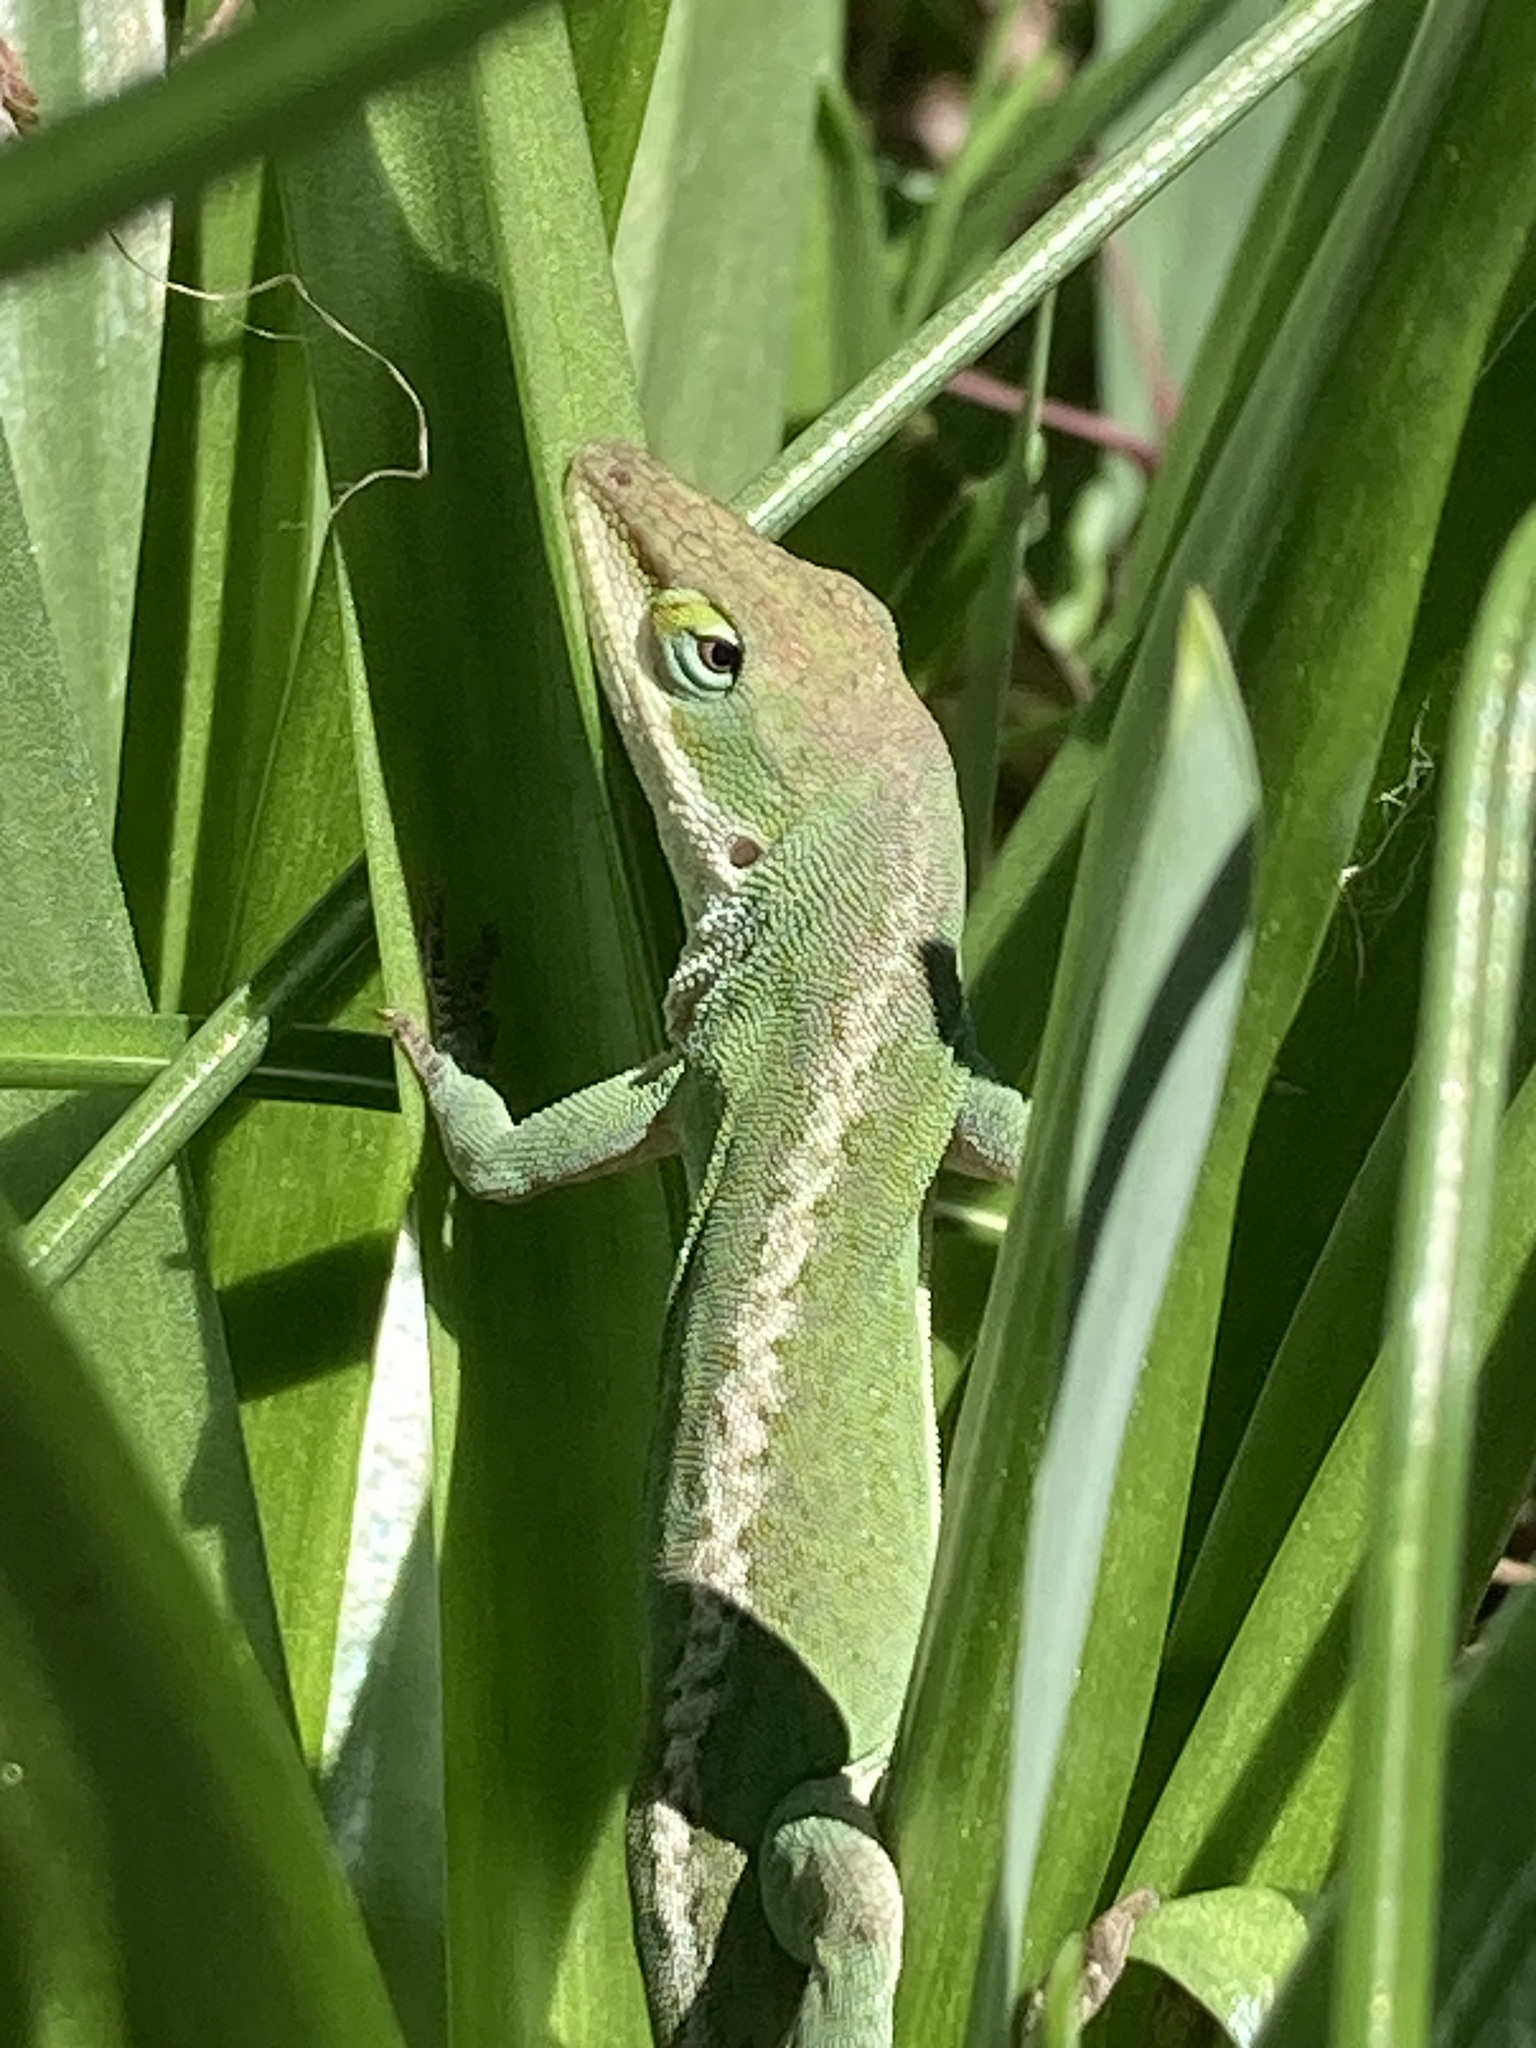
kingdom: Animalia
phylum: Chordata
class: Squamata
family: Dactyloidae
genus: Anolis
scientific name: Anolis carolinensis
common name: Green anole
